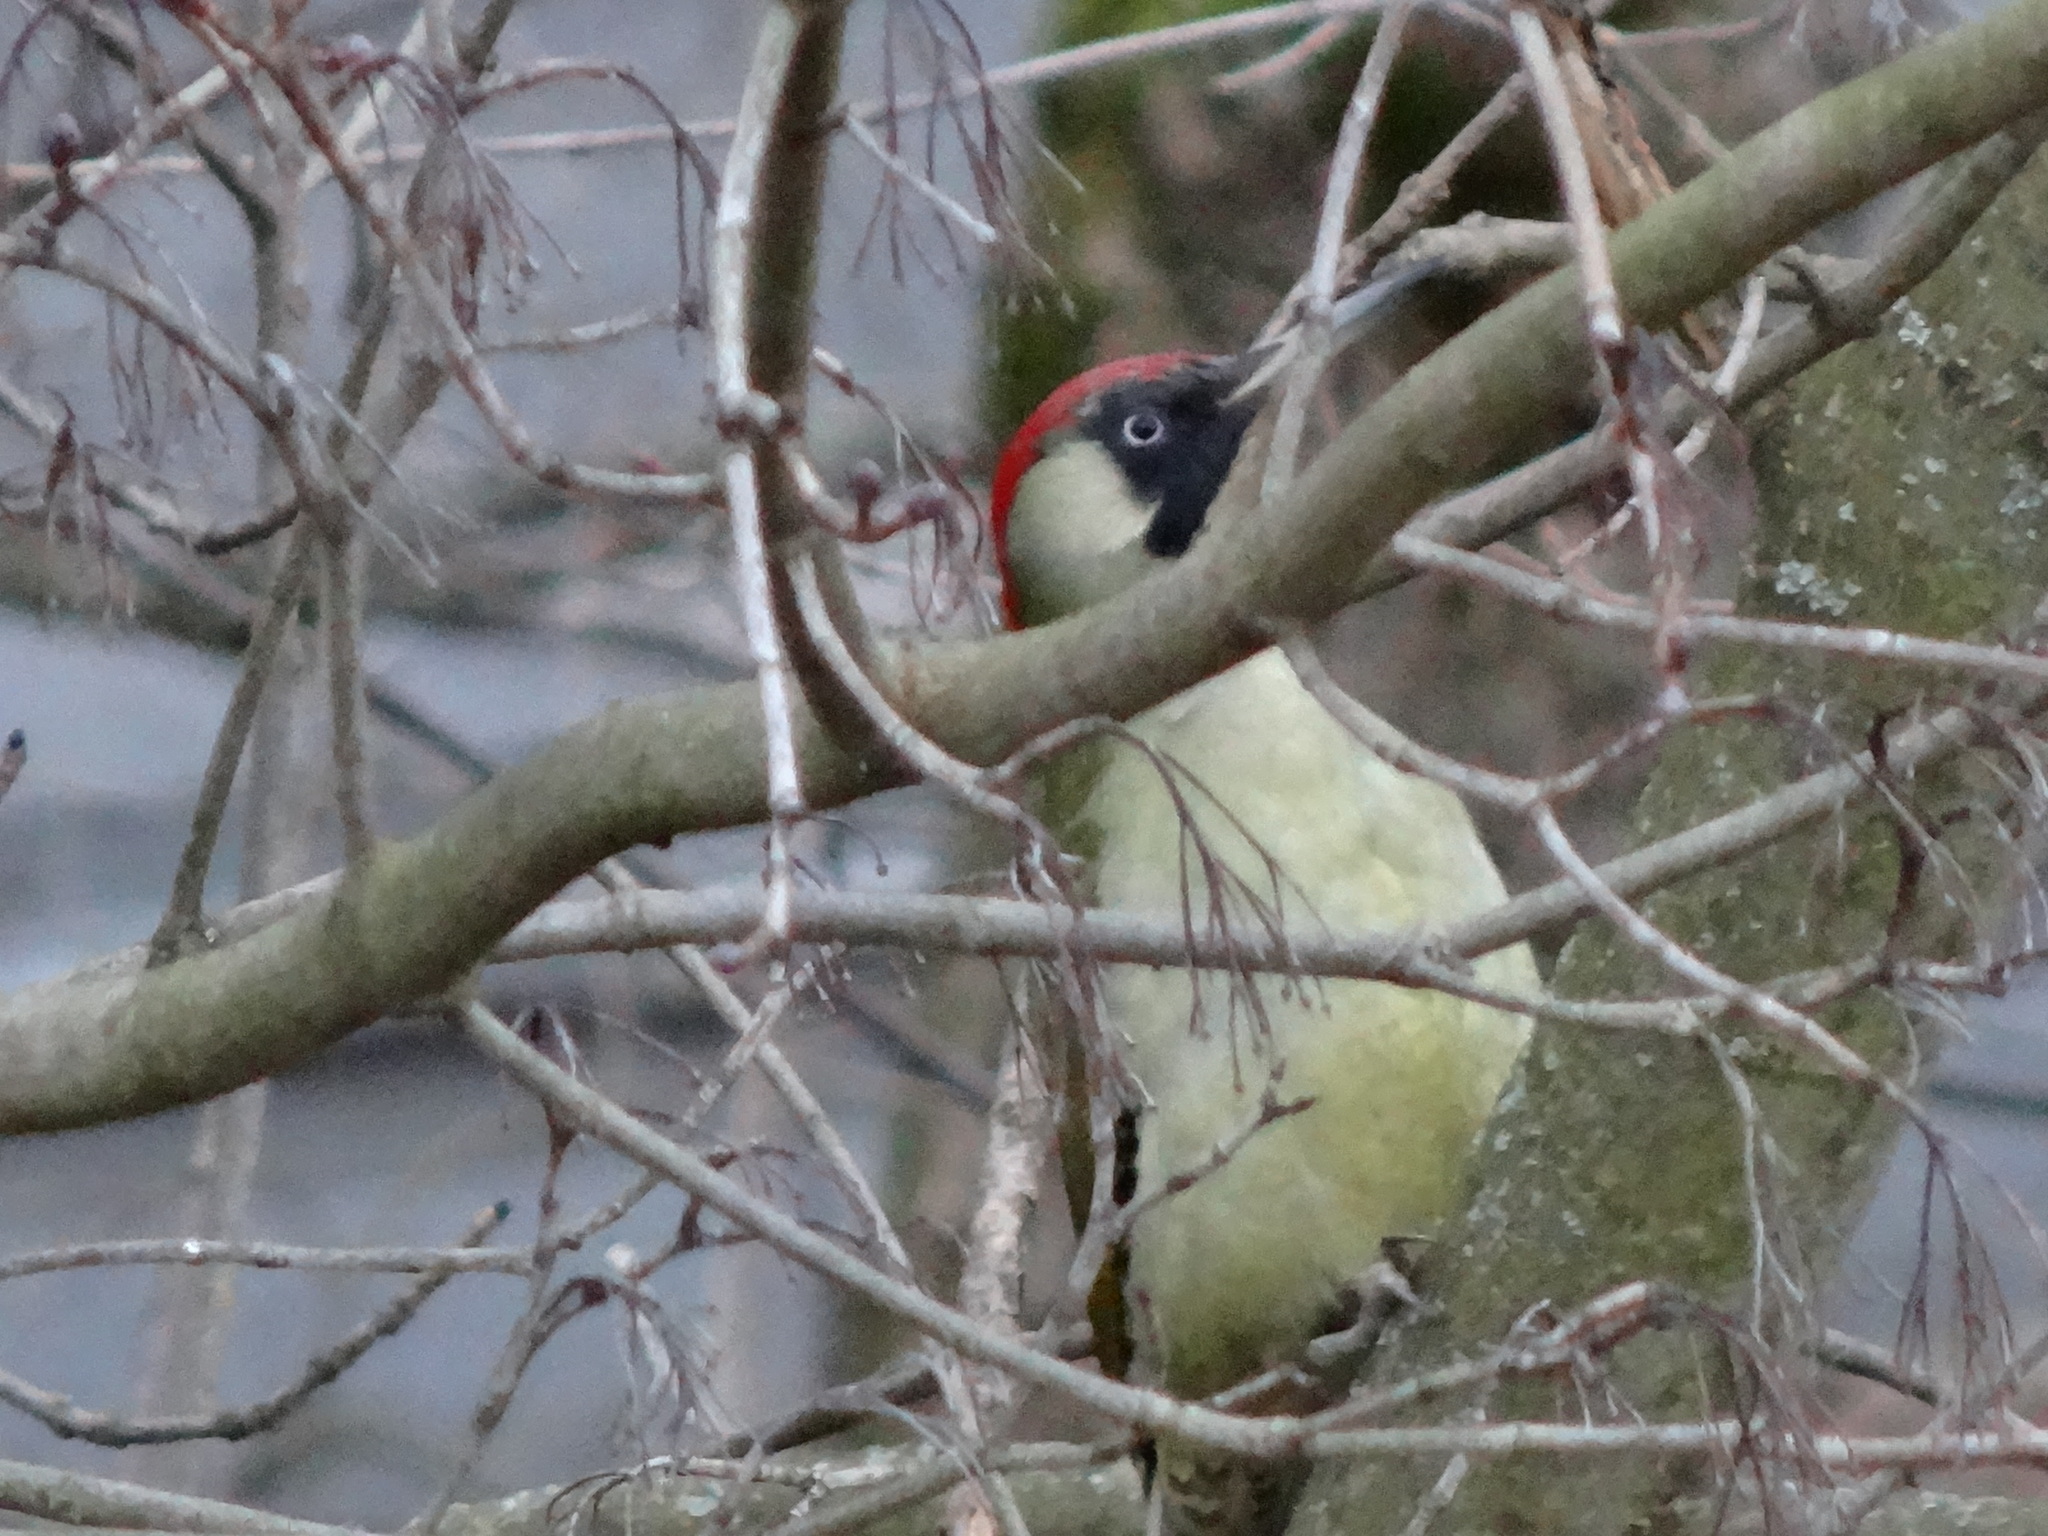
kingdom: Animalia
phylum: Chordata
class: Aves
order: Piciformes
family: Picidae
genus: Picus
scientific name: Picus viridis
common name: European green woodpecker
